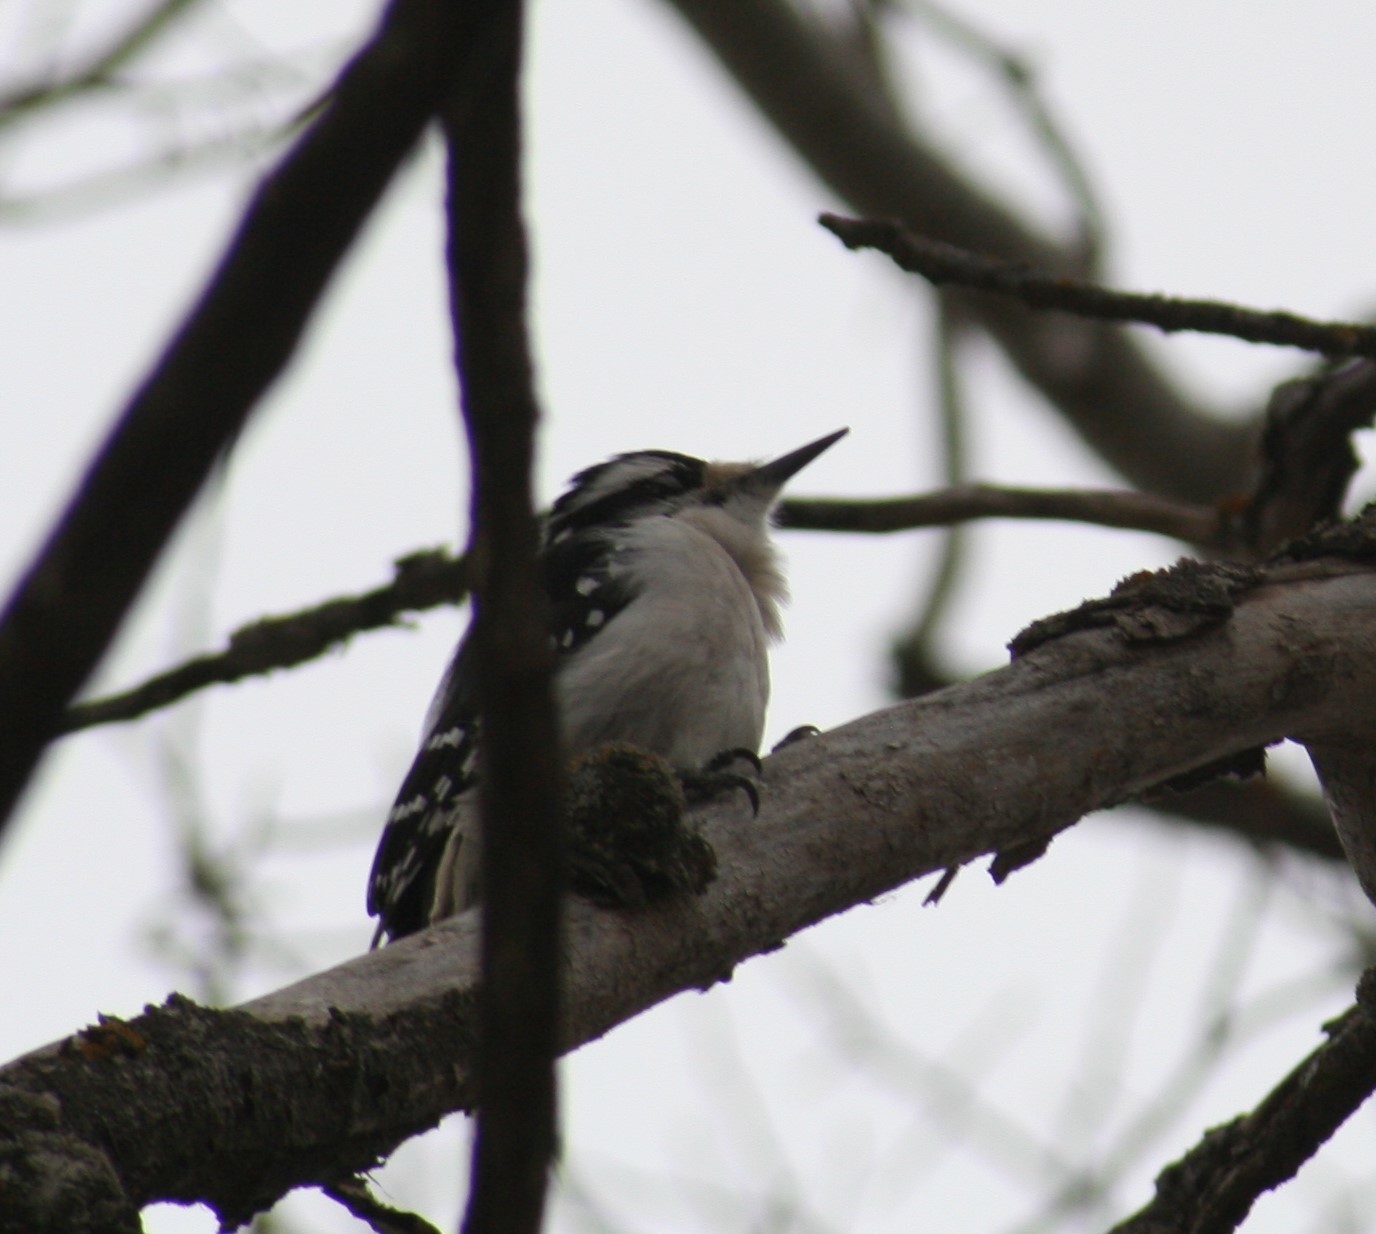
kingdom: Animalia
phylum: Chordata
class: Aves
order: Piciformes
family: Picidae
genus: Dryobates
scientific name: Dryobates pubescens
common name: Downy woodpecker
